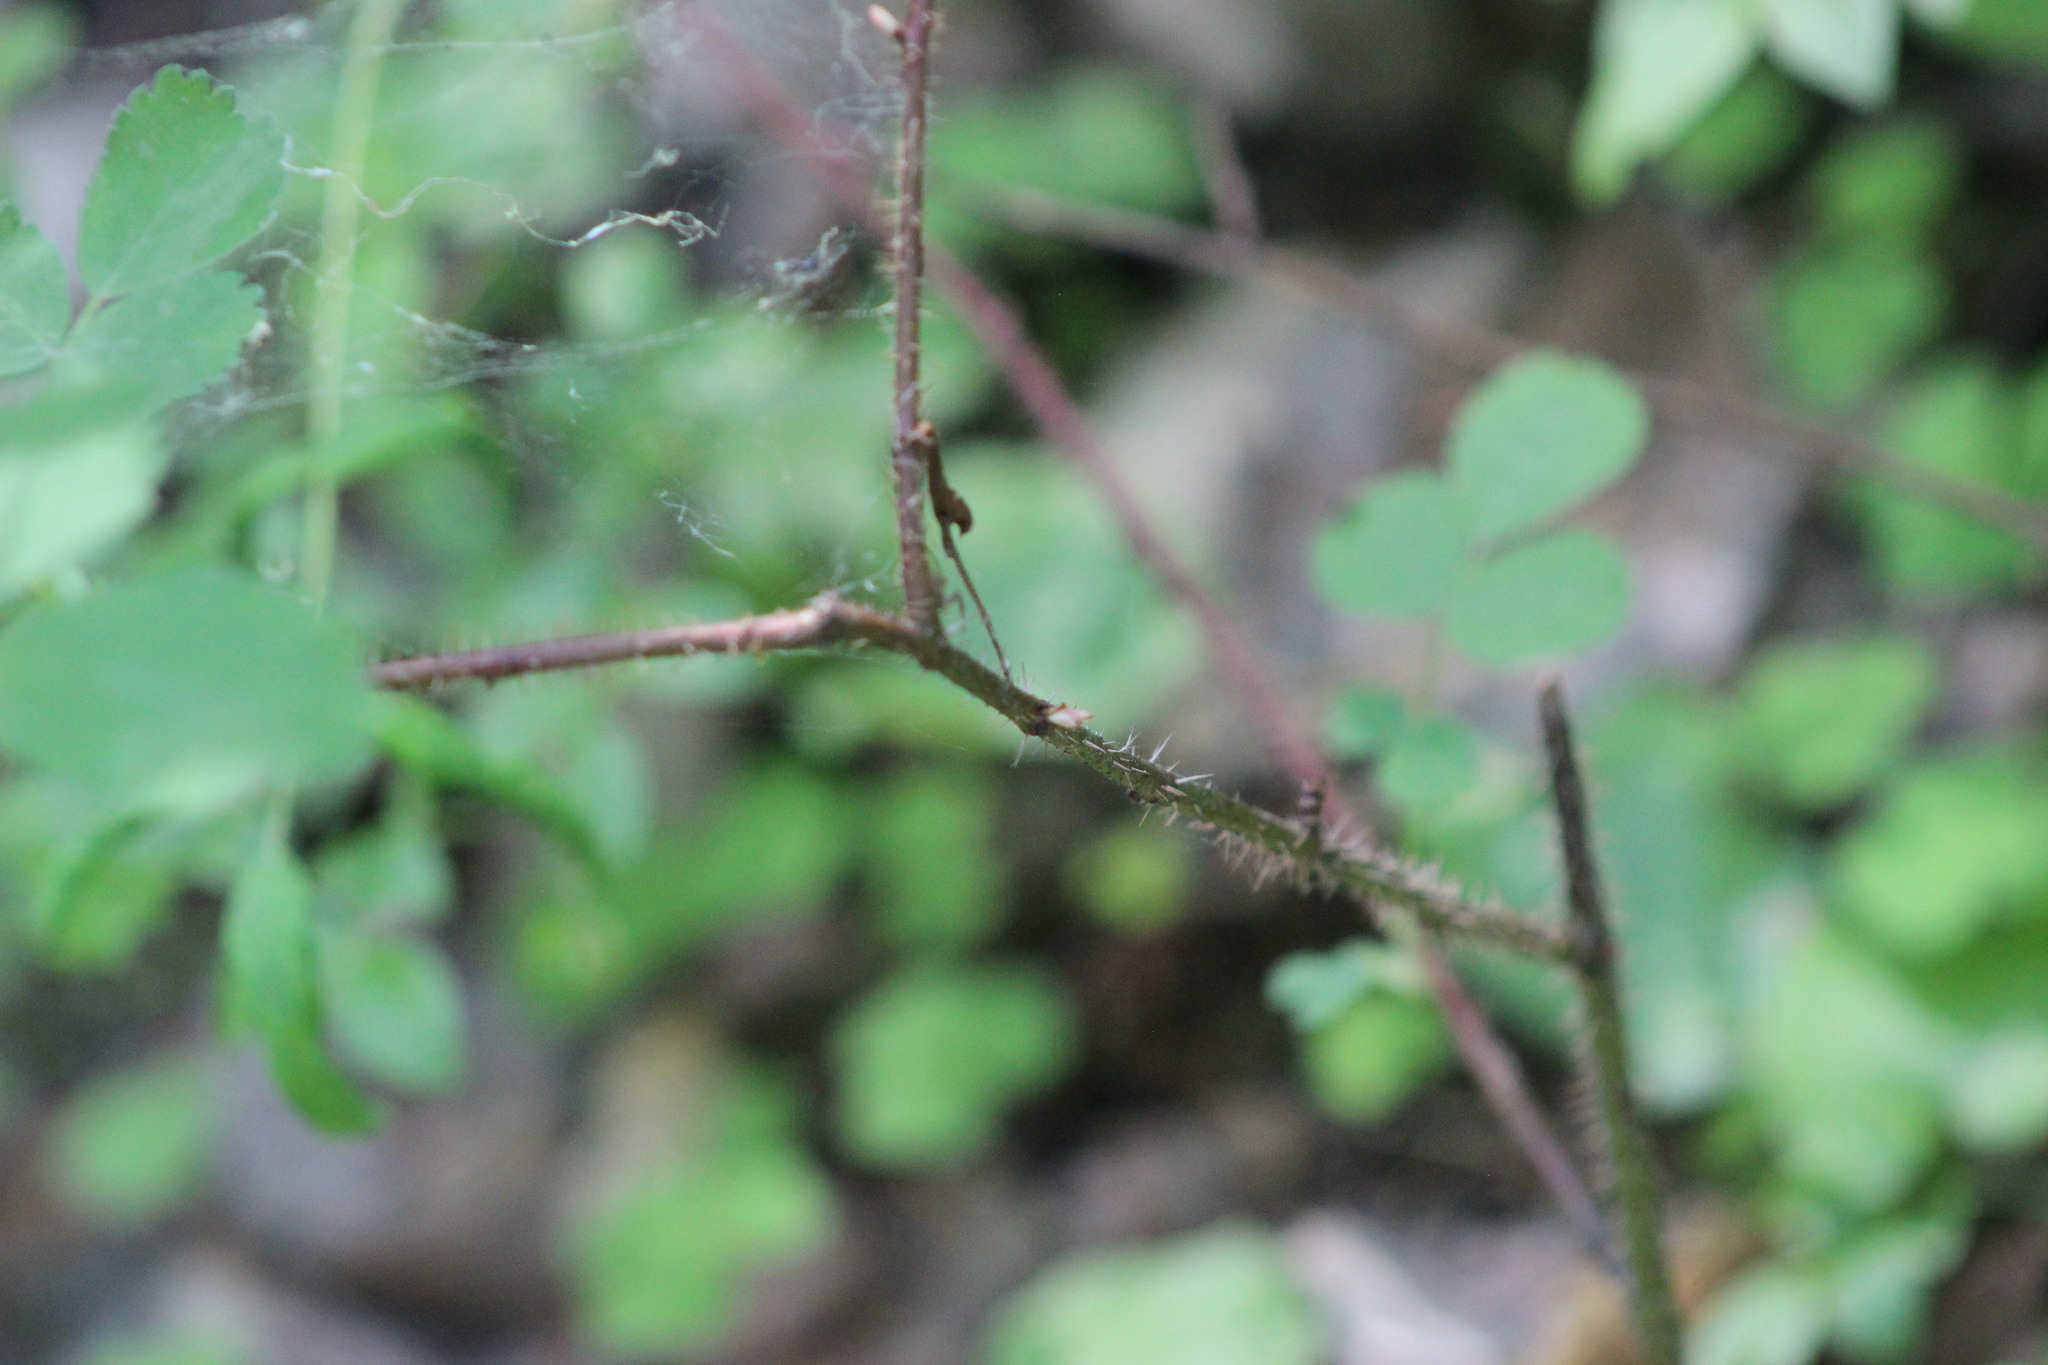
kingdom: Plantae
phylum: Tracheophyta
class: Magnoliopsida
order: Rosales
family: Rosaceae
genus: Rosa
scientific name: Rosa acicularis
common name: Prickly rose
